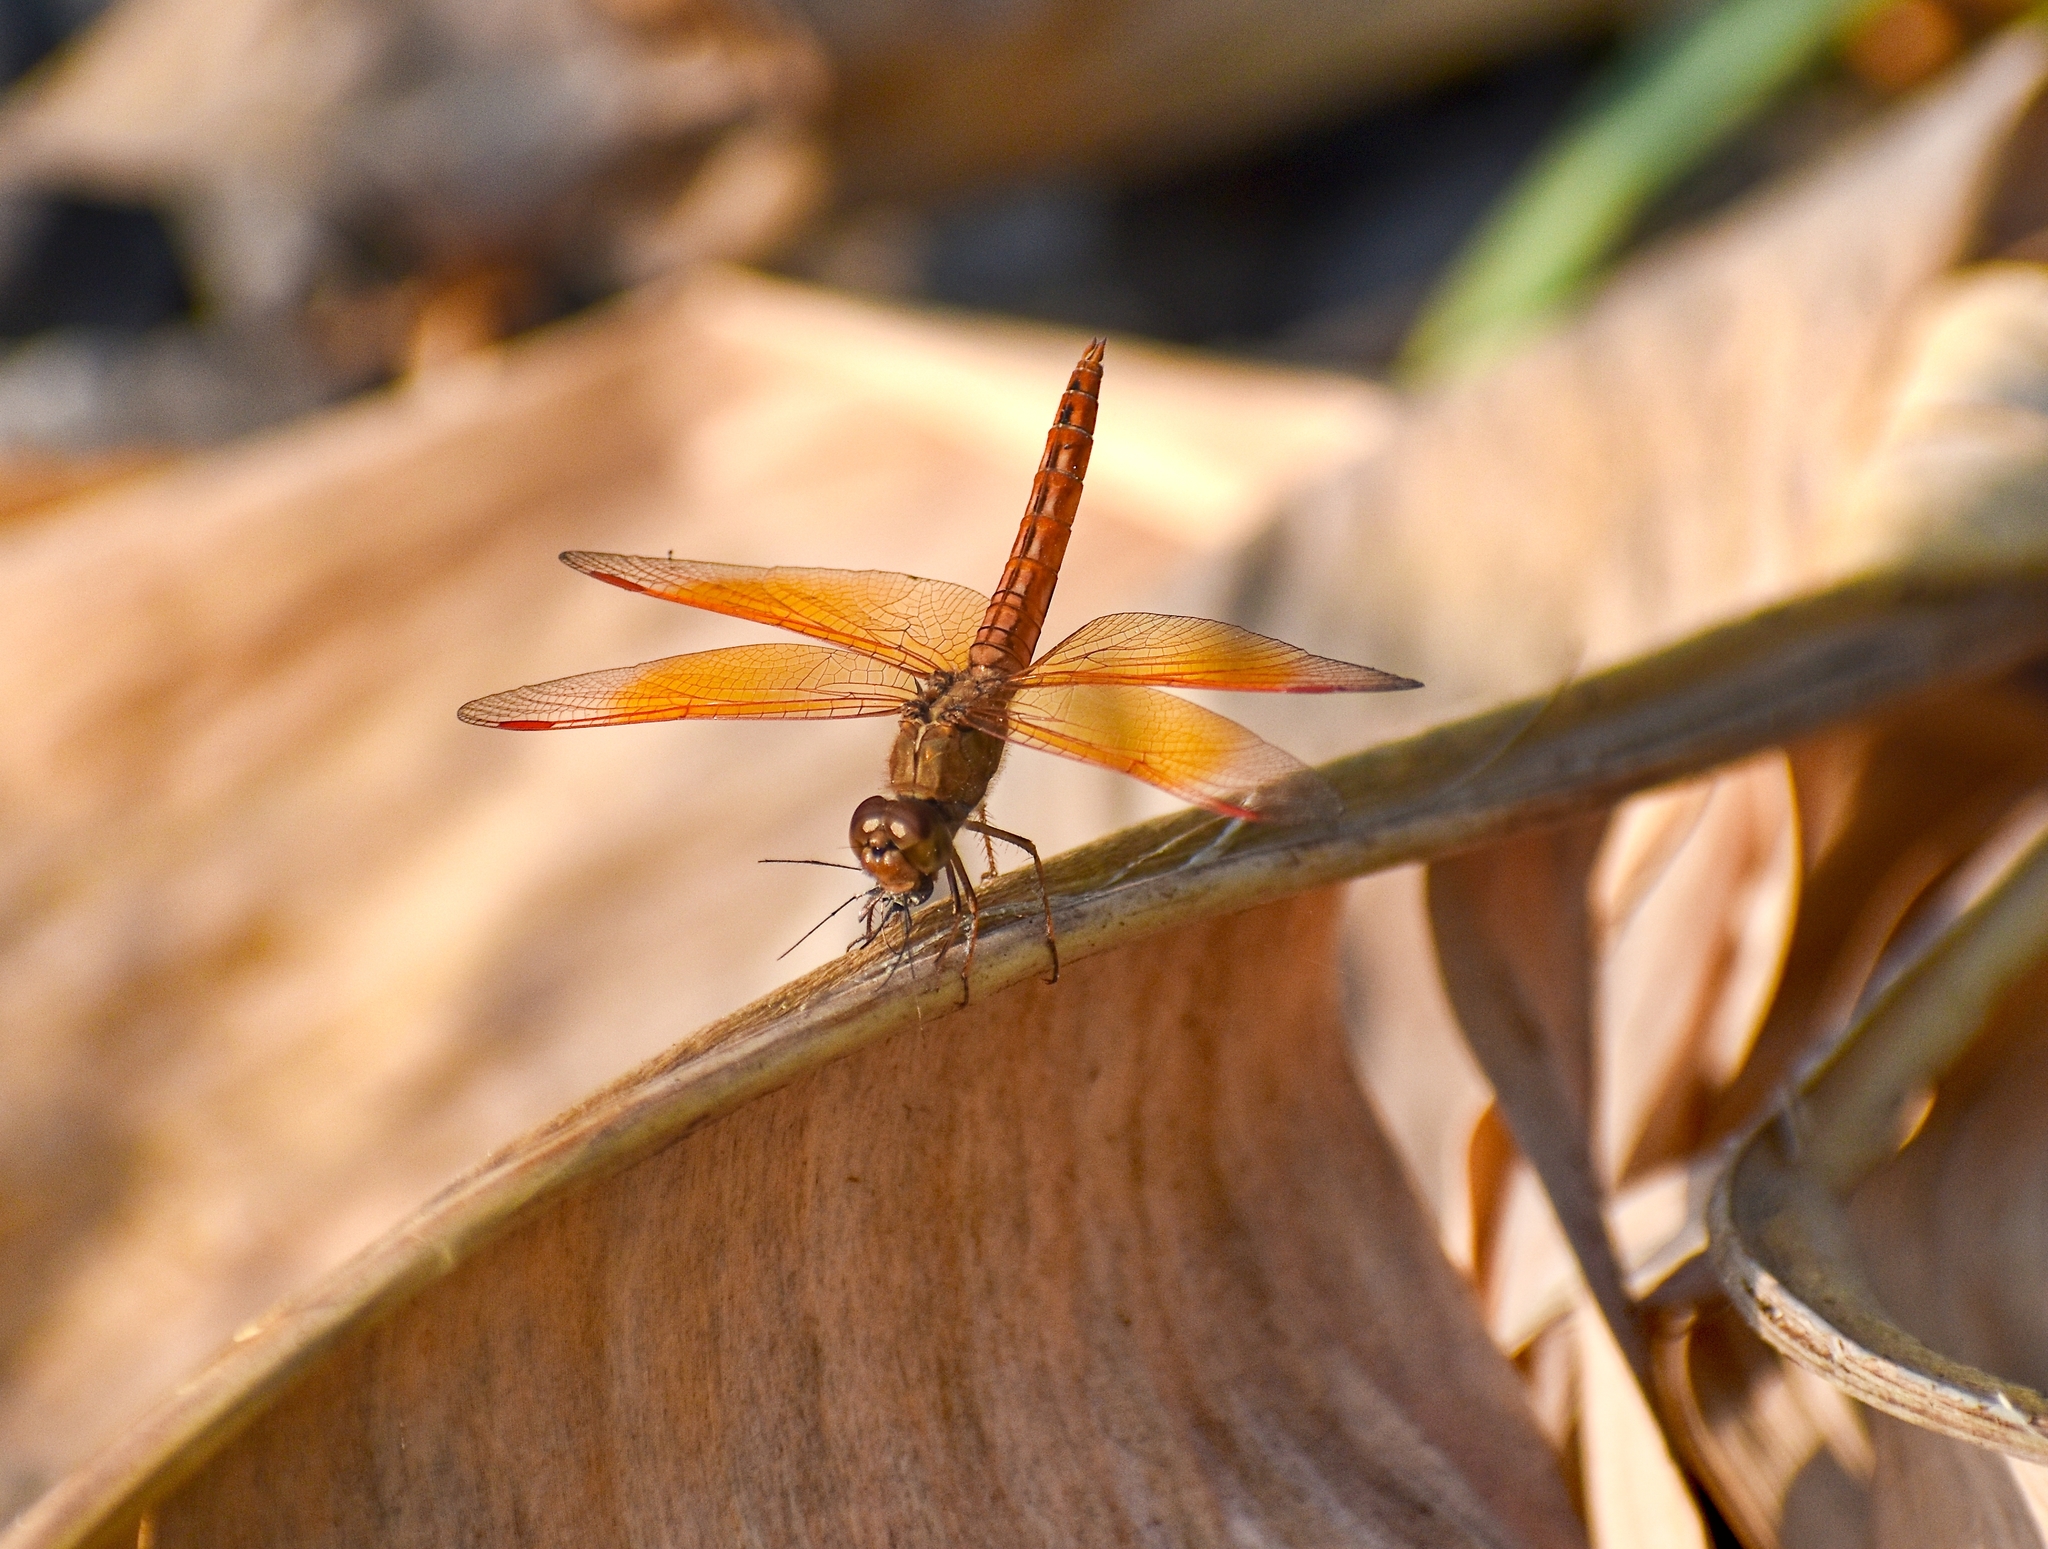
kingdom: Animalia
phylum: Arthropoda
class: Insecta
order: Odonata
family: Libellulidae
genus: Brachythemis
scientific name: Brachythemis contaminata
